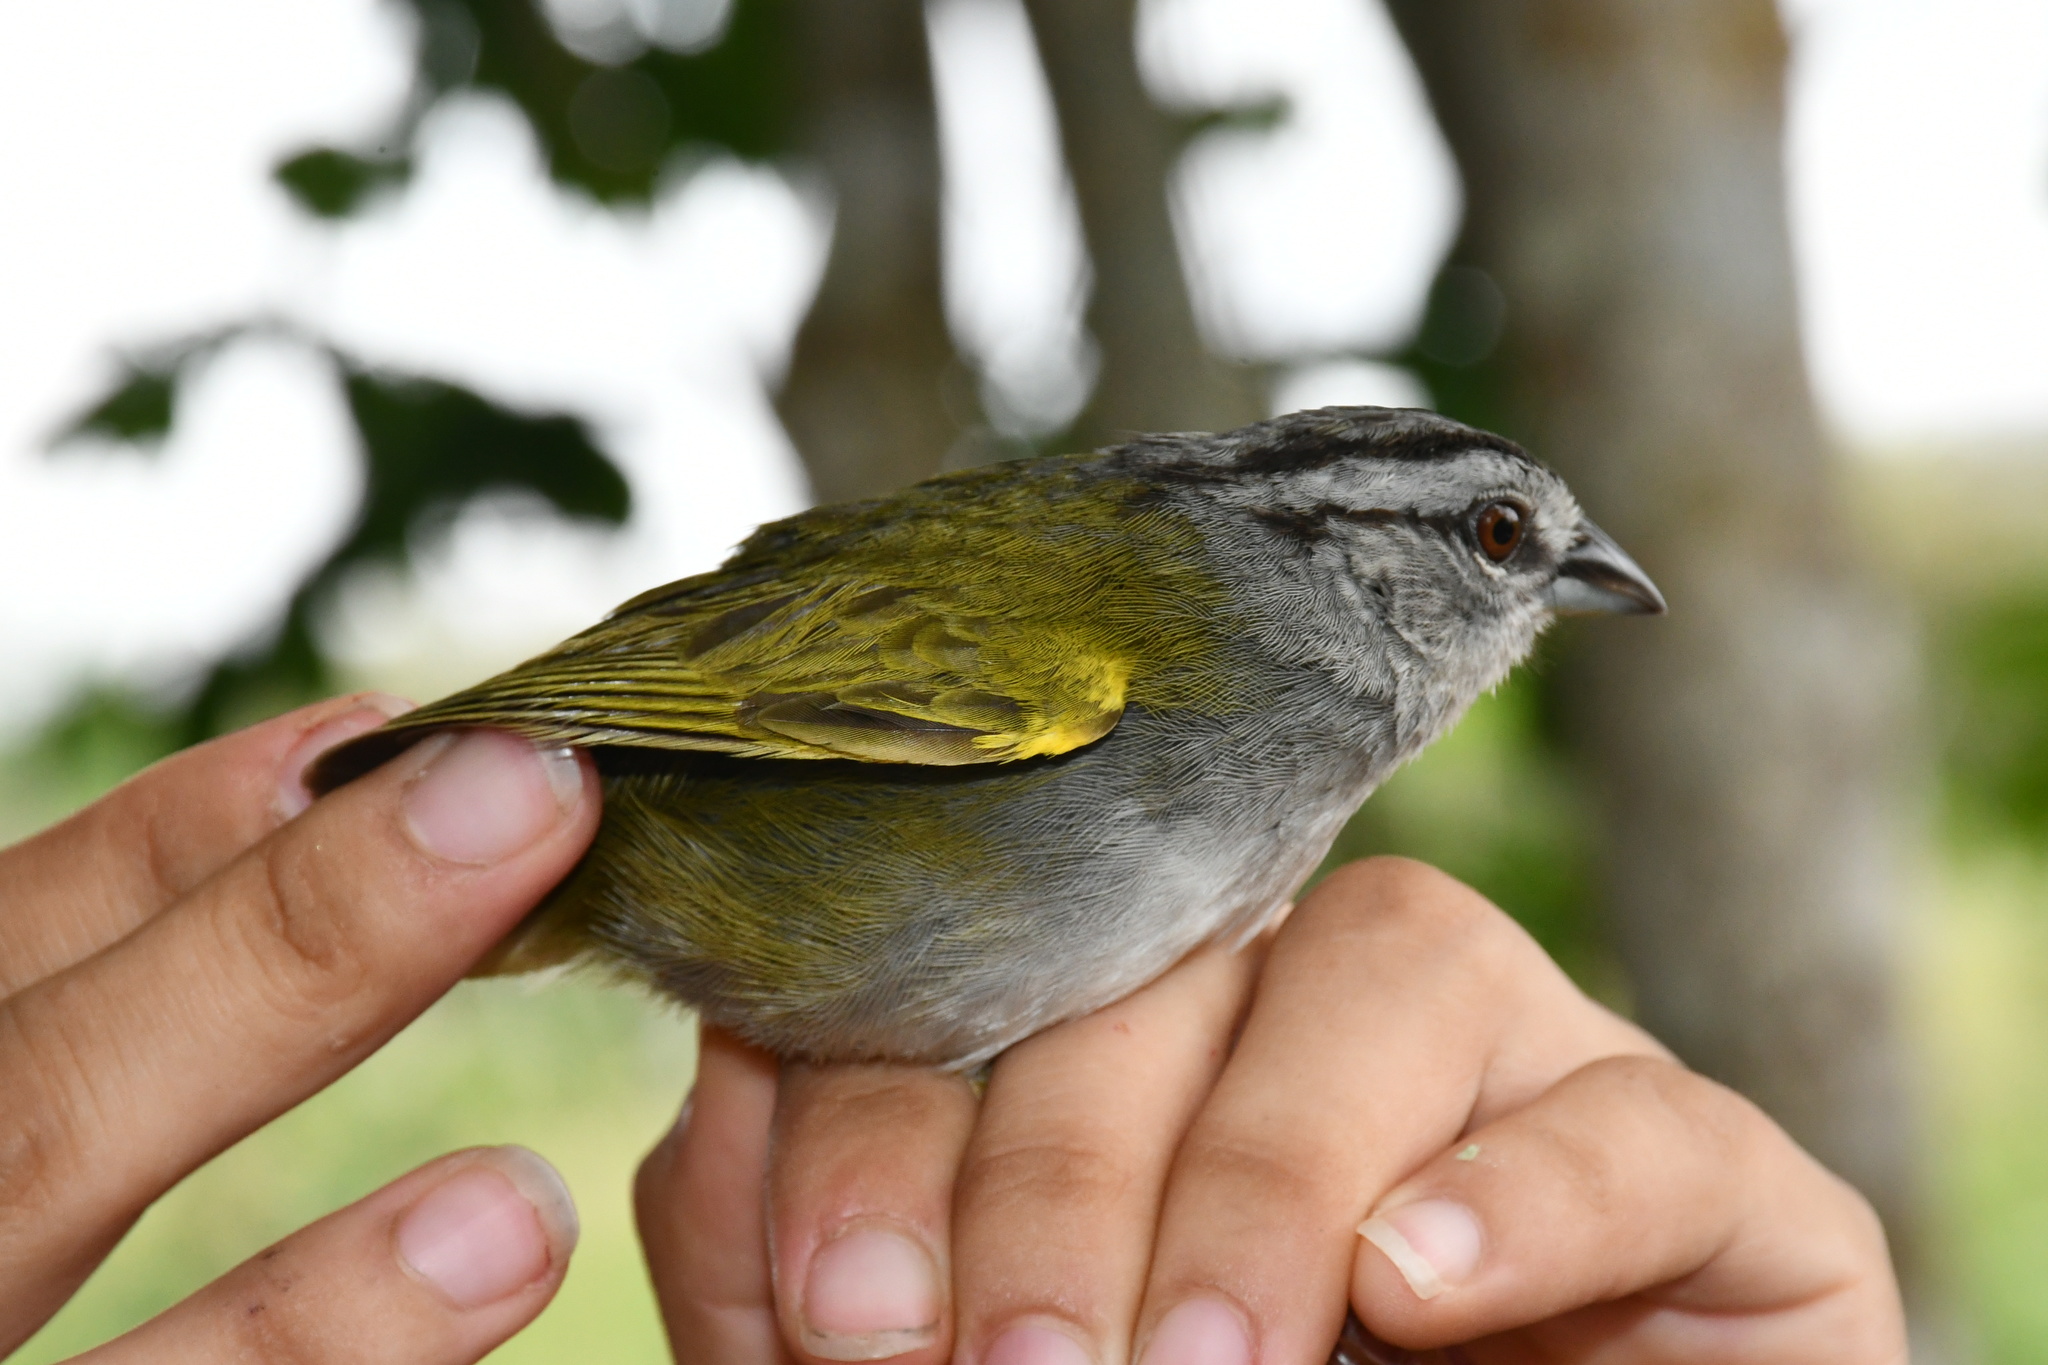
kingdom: Animalia
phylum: Chordata
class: Aves
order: Passeriformes
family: Passerellidae
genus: Arremonops
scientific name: Arremonops chloronotus
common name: Green-backed sparrow
